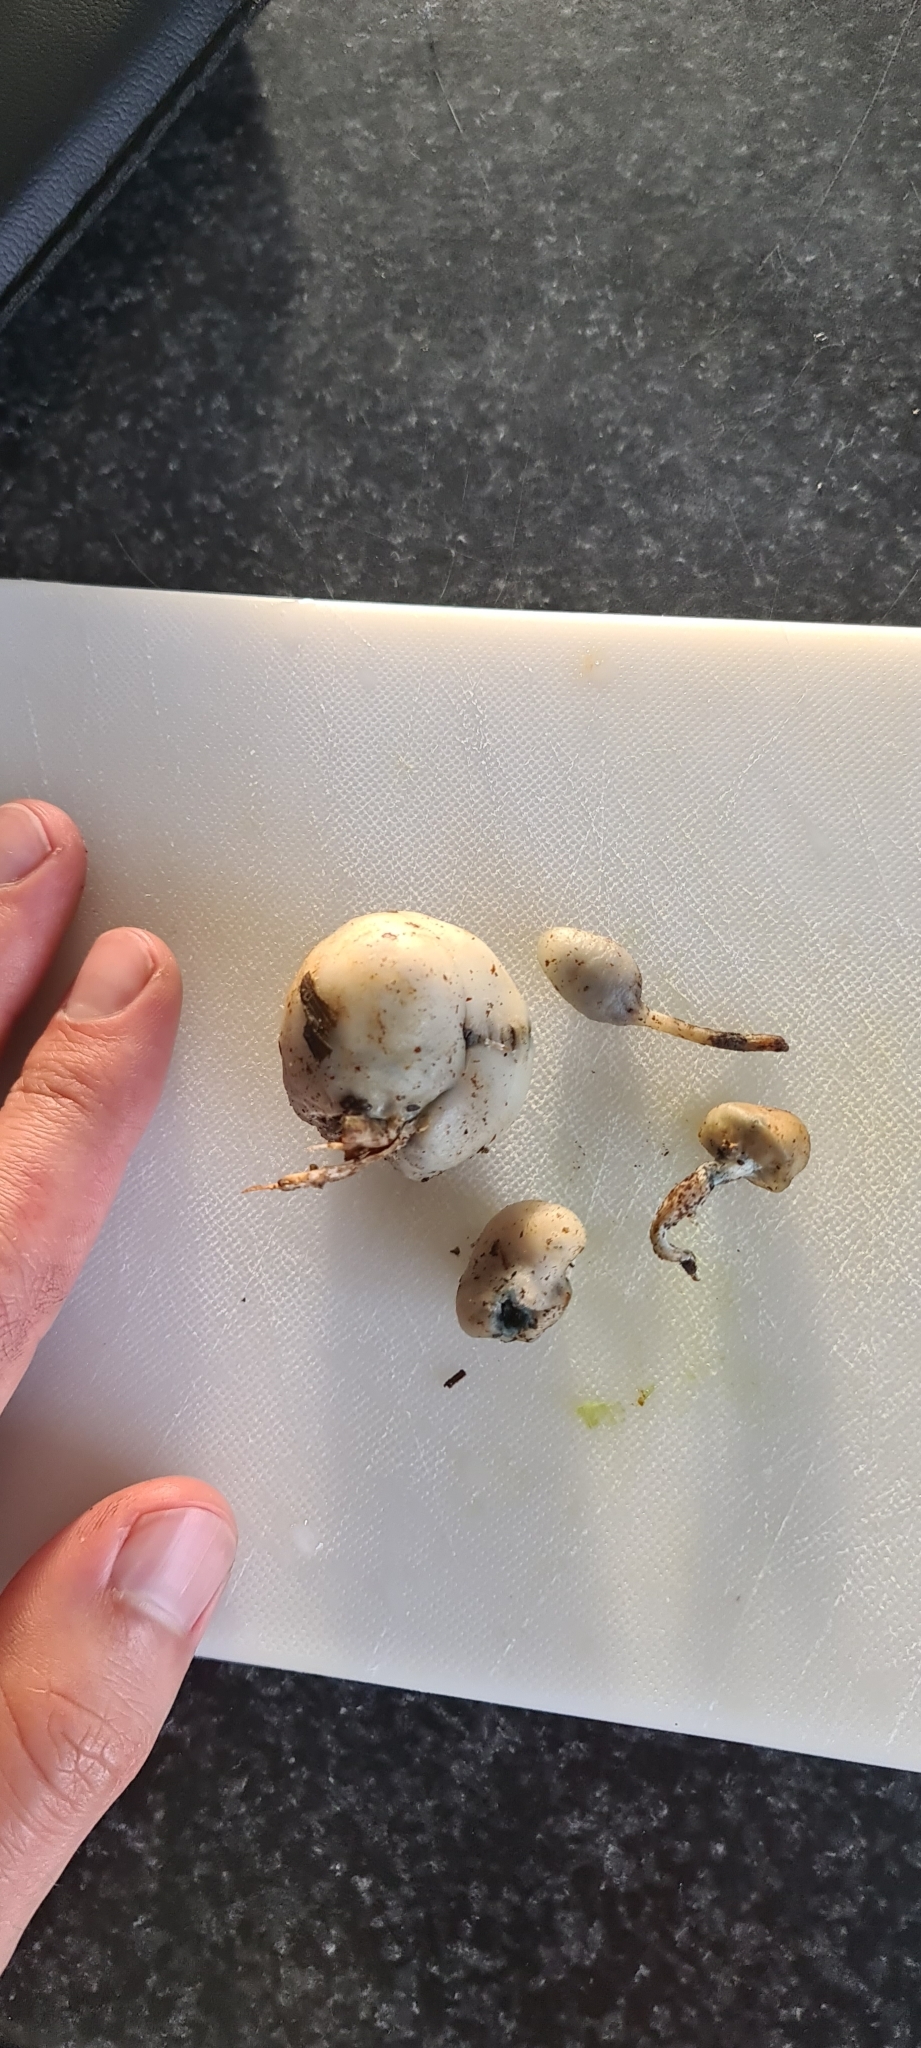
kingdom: Fungi
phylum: Basidiomycota
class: Agaricomycetes
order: Agaricales
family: Hymenogastraceae
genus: Psilocybe
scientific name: Psilocybe weraroa
